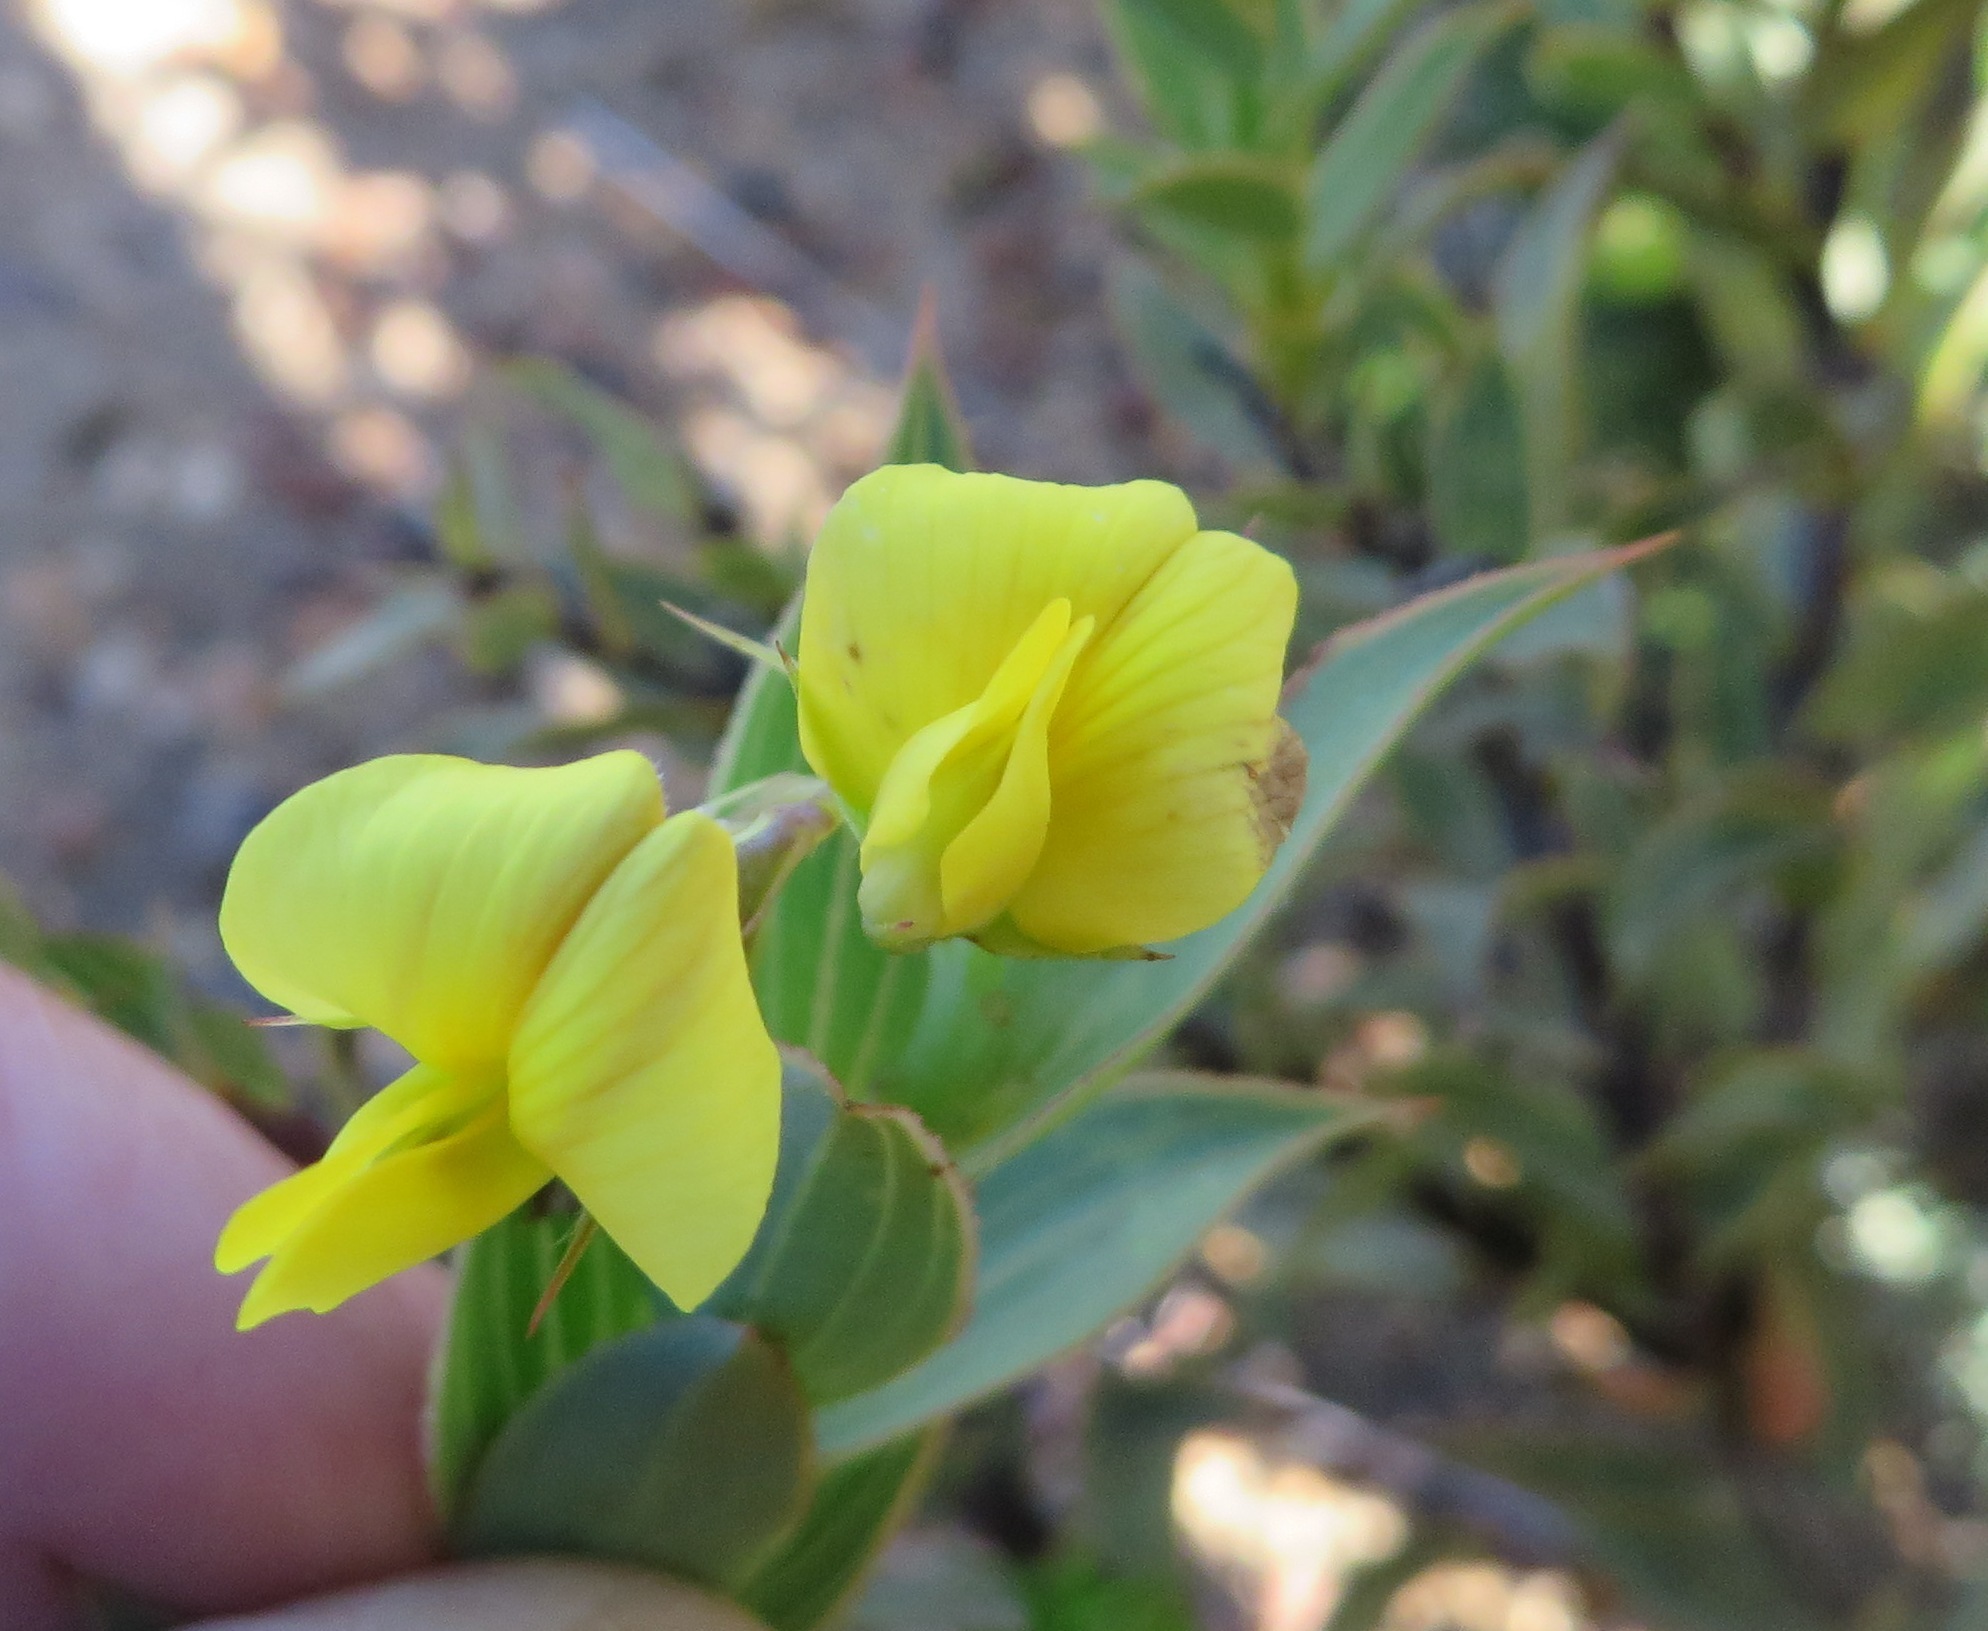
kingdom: Plantae
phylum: Tracheophyta
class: Magnoliopsida
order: Fabales
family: Fabaceae
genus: Aspalathus
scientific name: Aspalathus crenata
